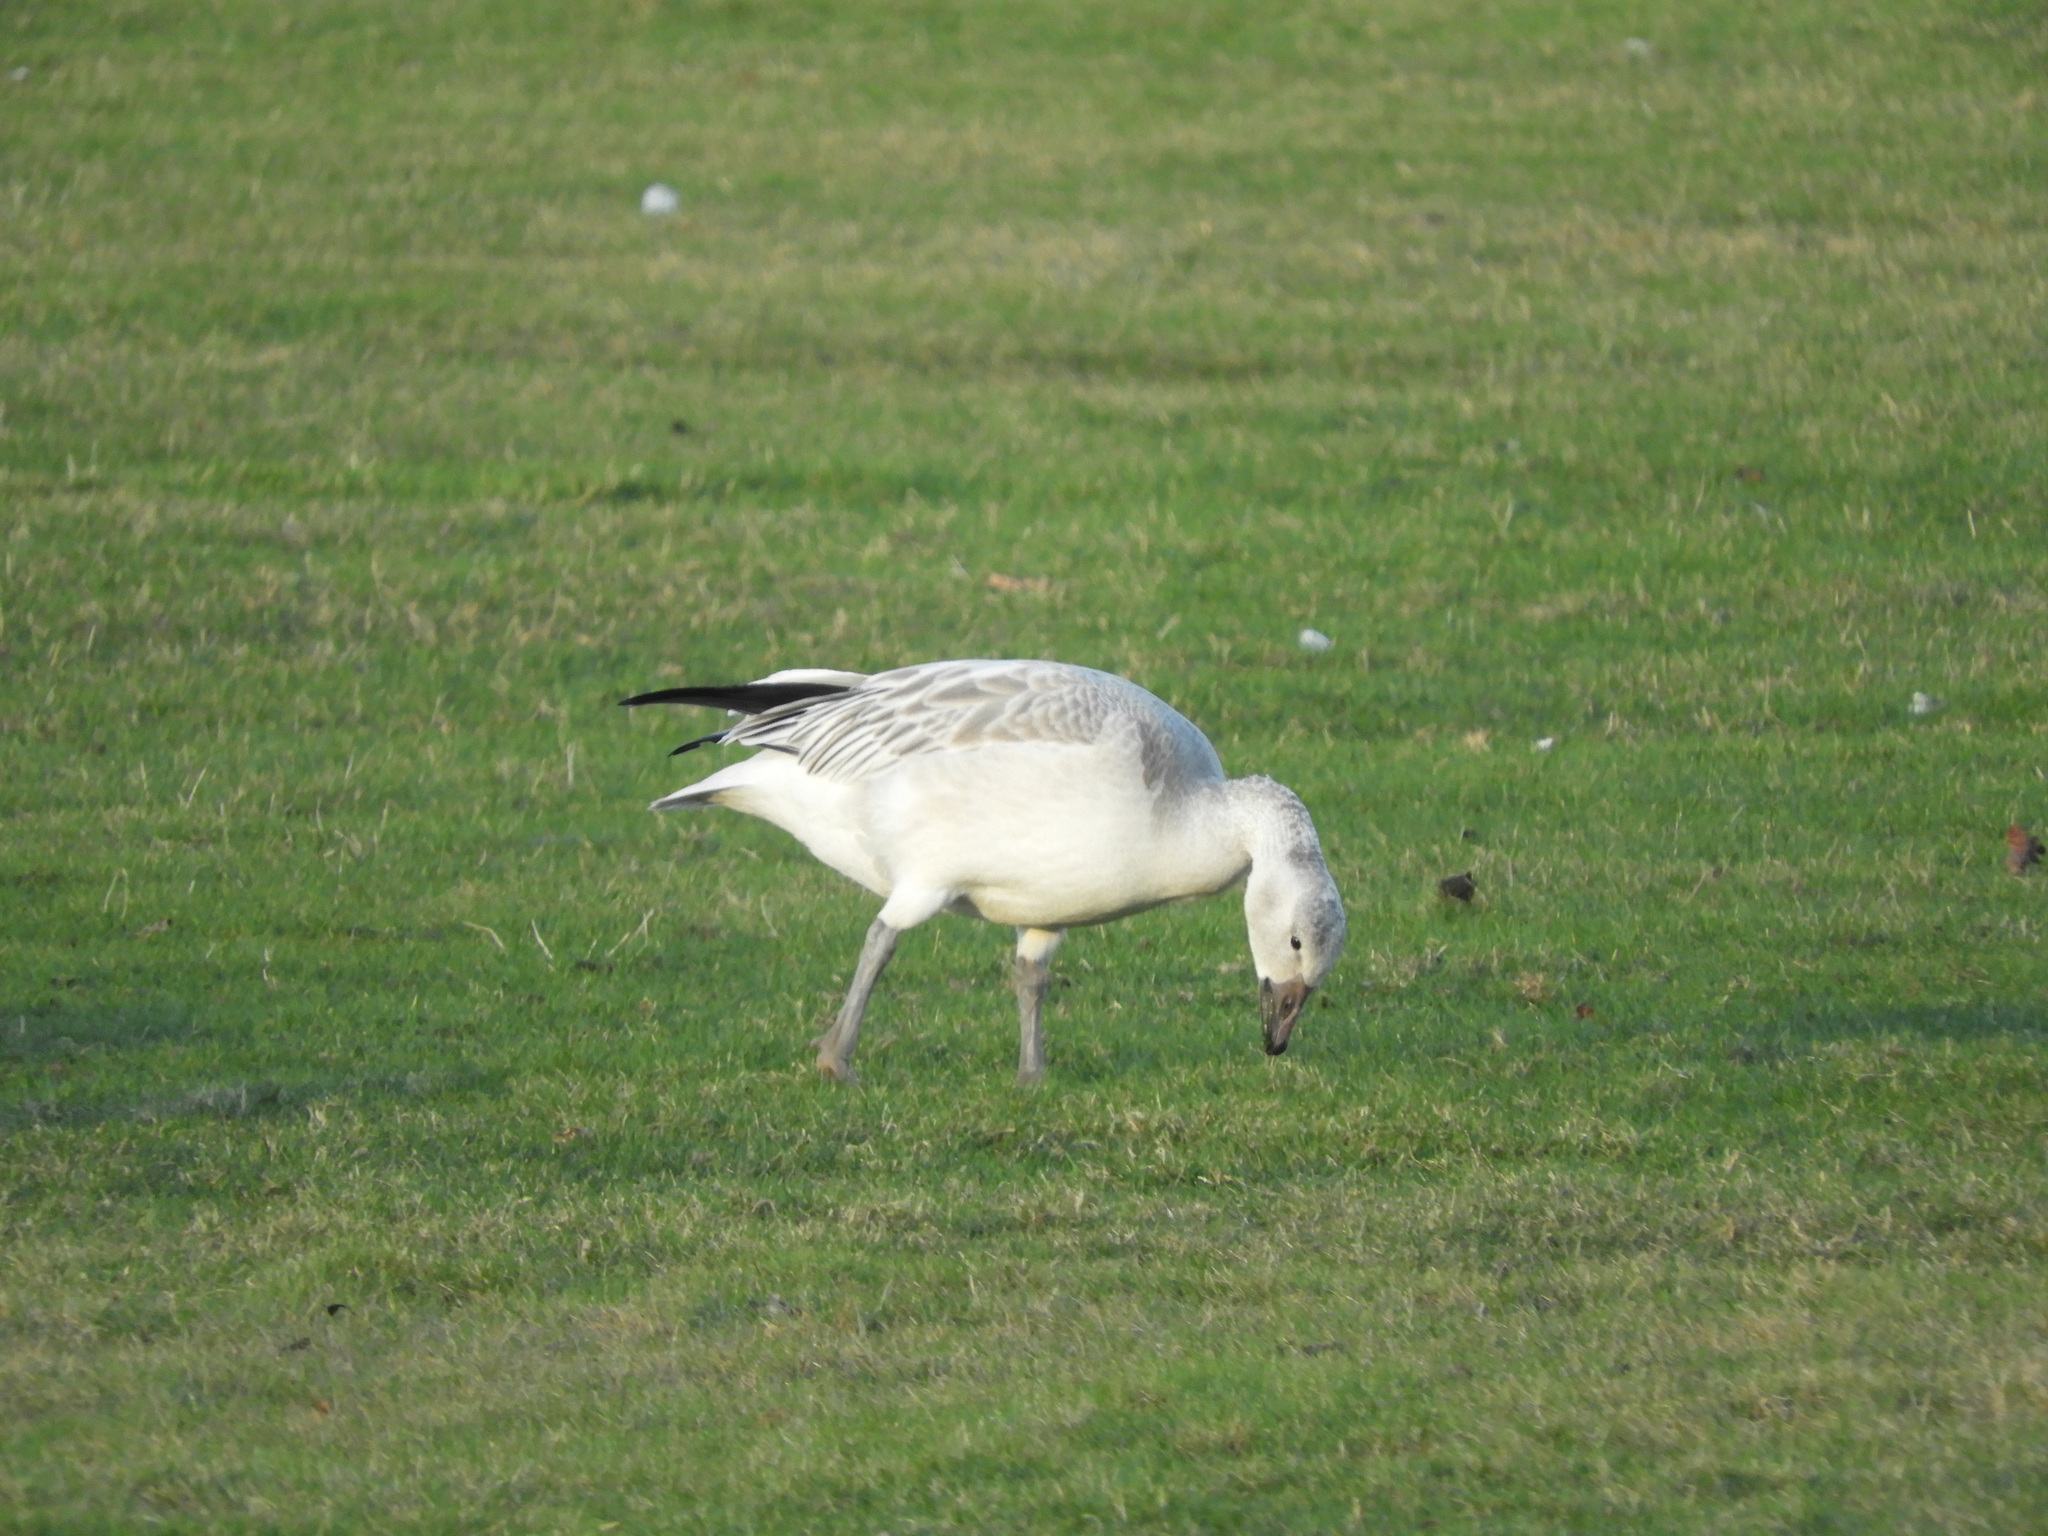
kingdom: Animalia
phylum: Chordata
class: Aves
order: Anseriformes
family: Anatidae
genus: Anser
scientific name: Anser caerulescens
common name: Snow goose
